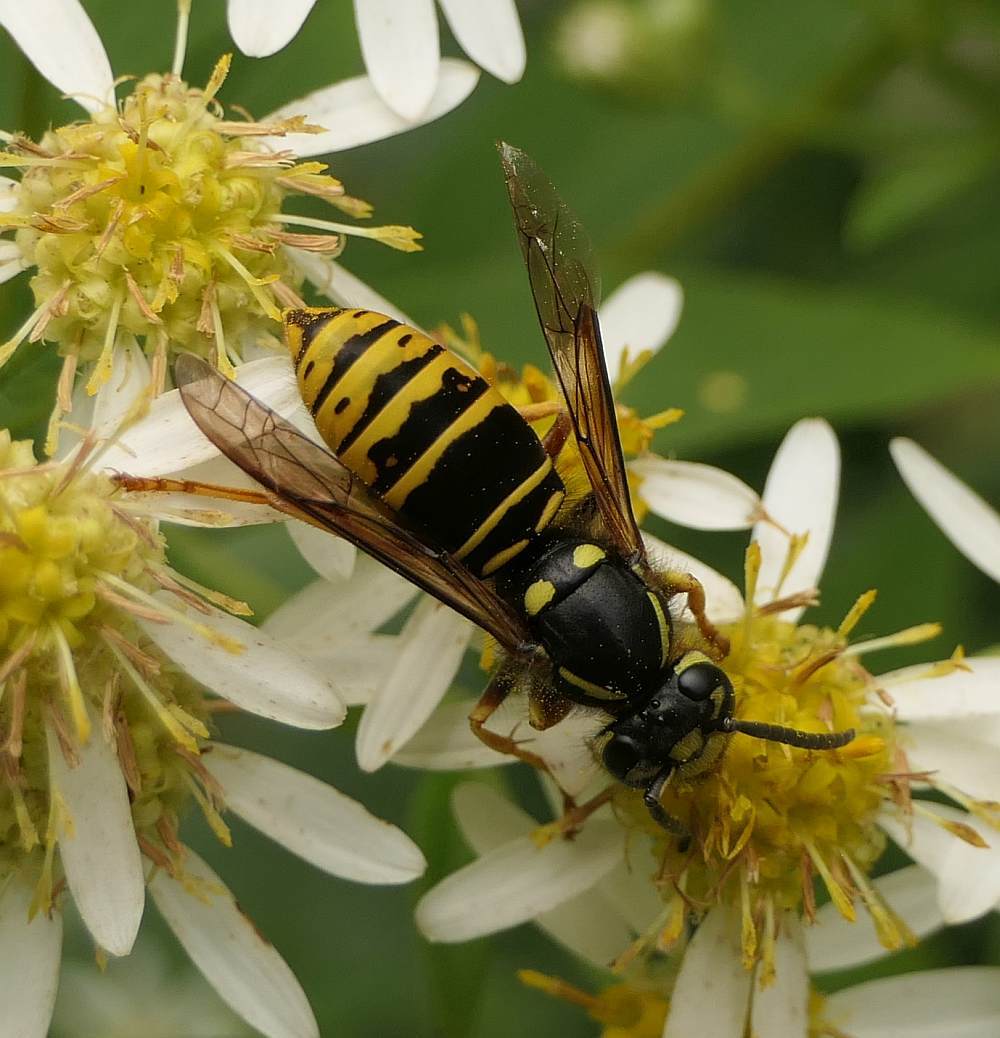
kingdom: Animalia
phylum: Arthropoda
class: Insecta
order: Hymenoptera
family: Vespidae
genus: Vespula
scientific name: Vespula vidua
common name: Widow yellowjacket
